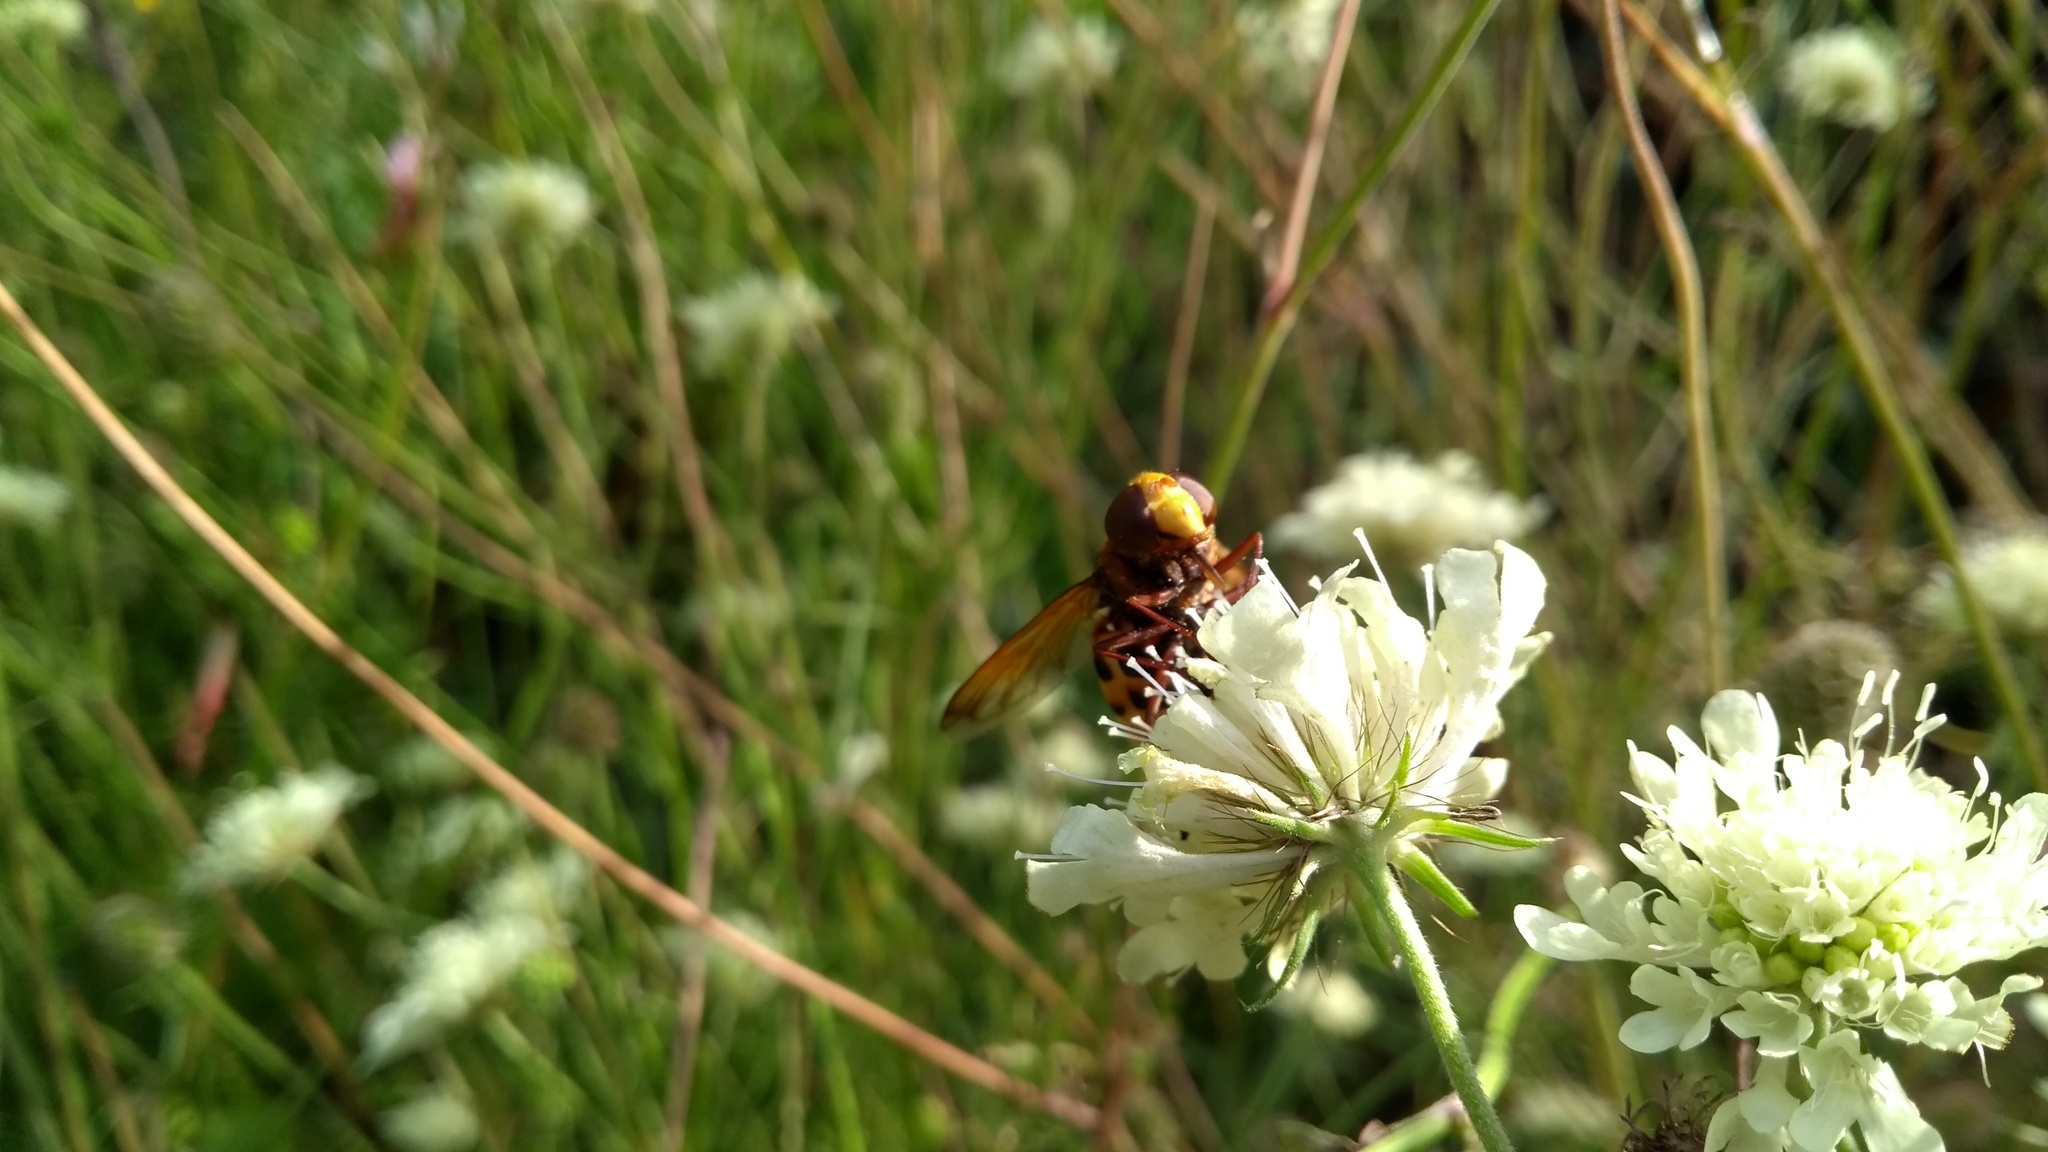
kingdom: Animalia
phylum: Arthropoda
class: Insecta
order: Diptera
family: Syrphidae
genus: Volucella
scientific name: Volucella zonaria
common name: Hornet hoverfly
